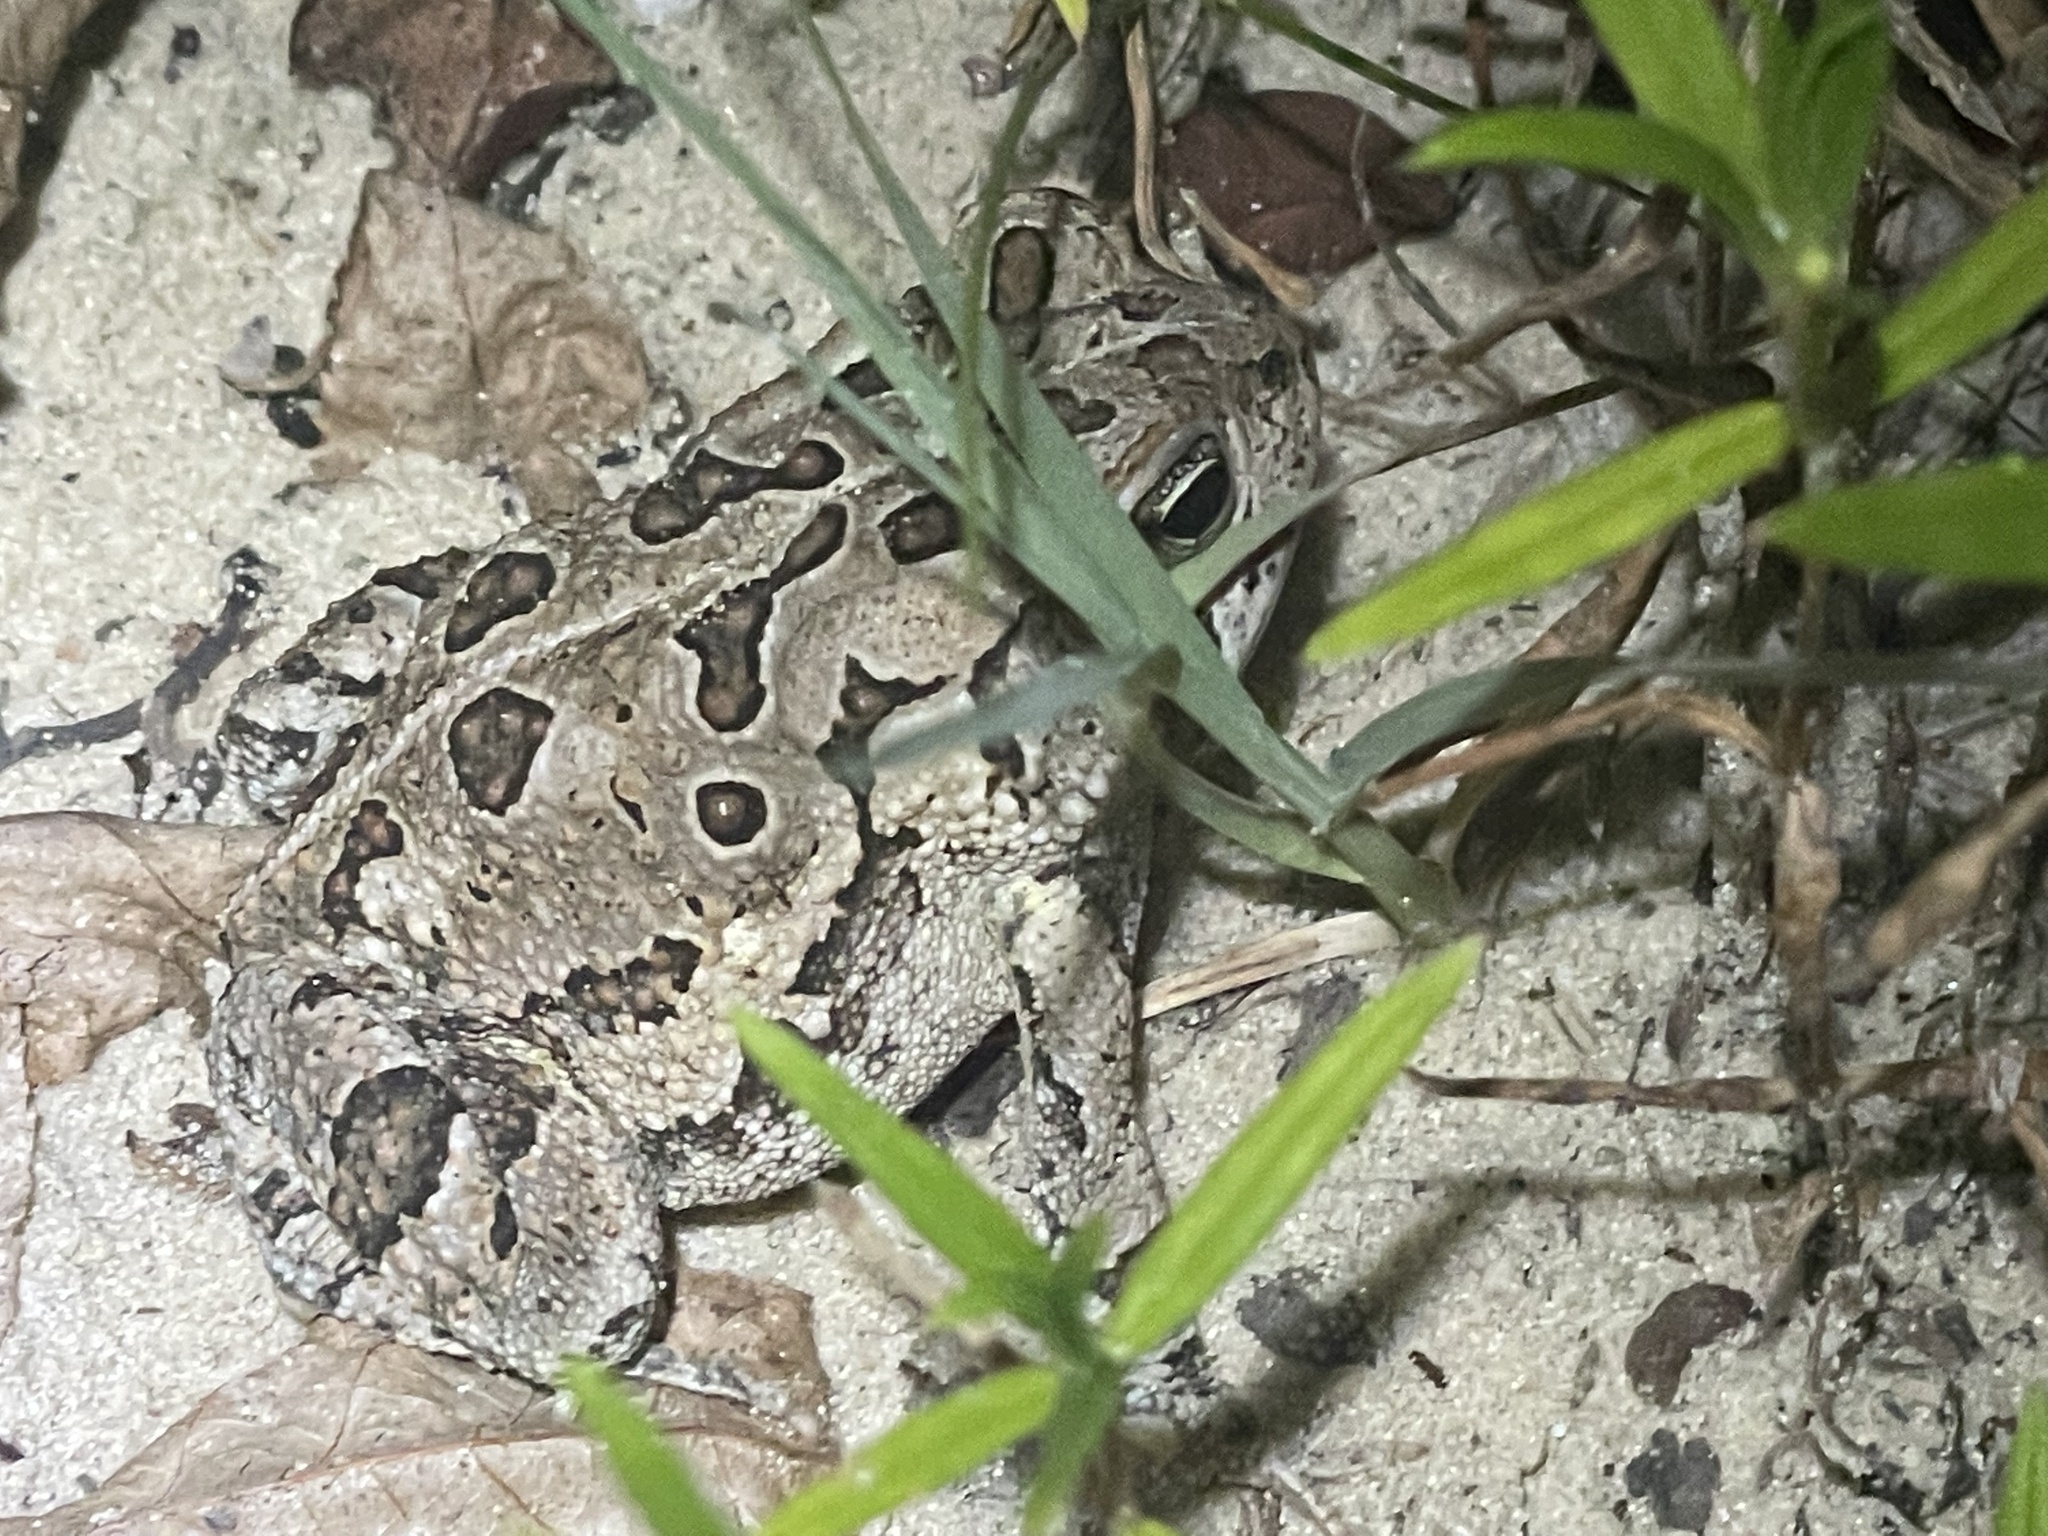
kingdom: Animalia
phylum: Chordata
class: Amphibia
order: Anura
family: Bufonidae
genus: Anaxyrus
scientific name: Anaxyrus fowleri
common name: Fowler's toad
